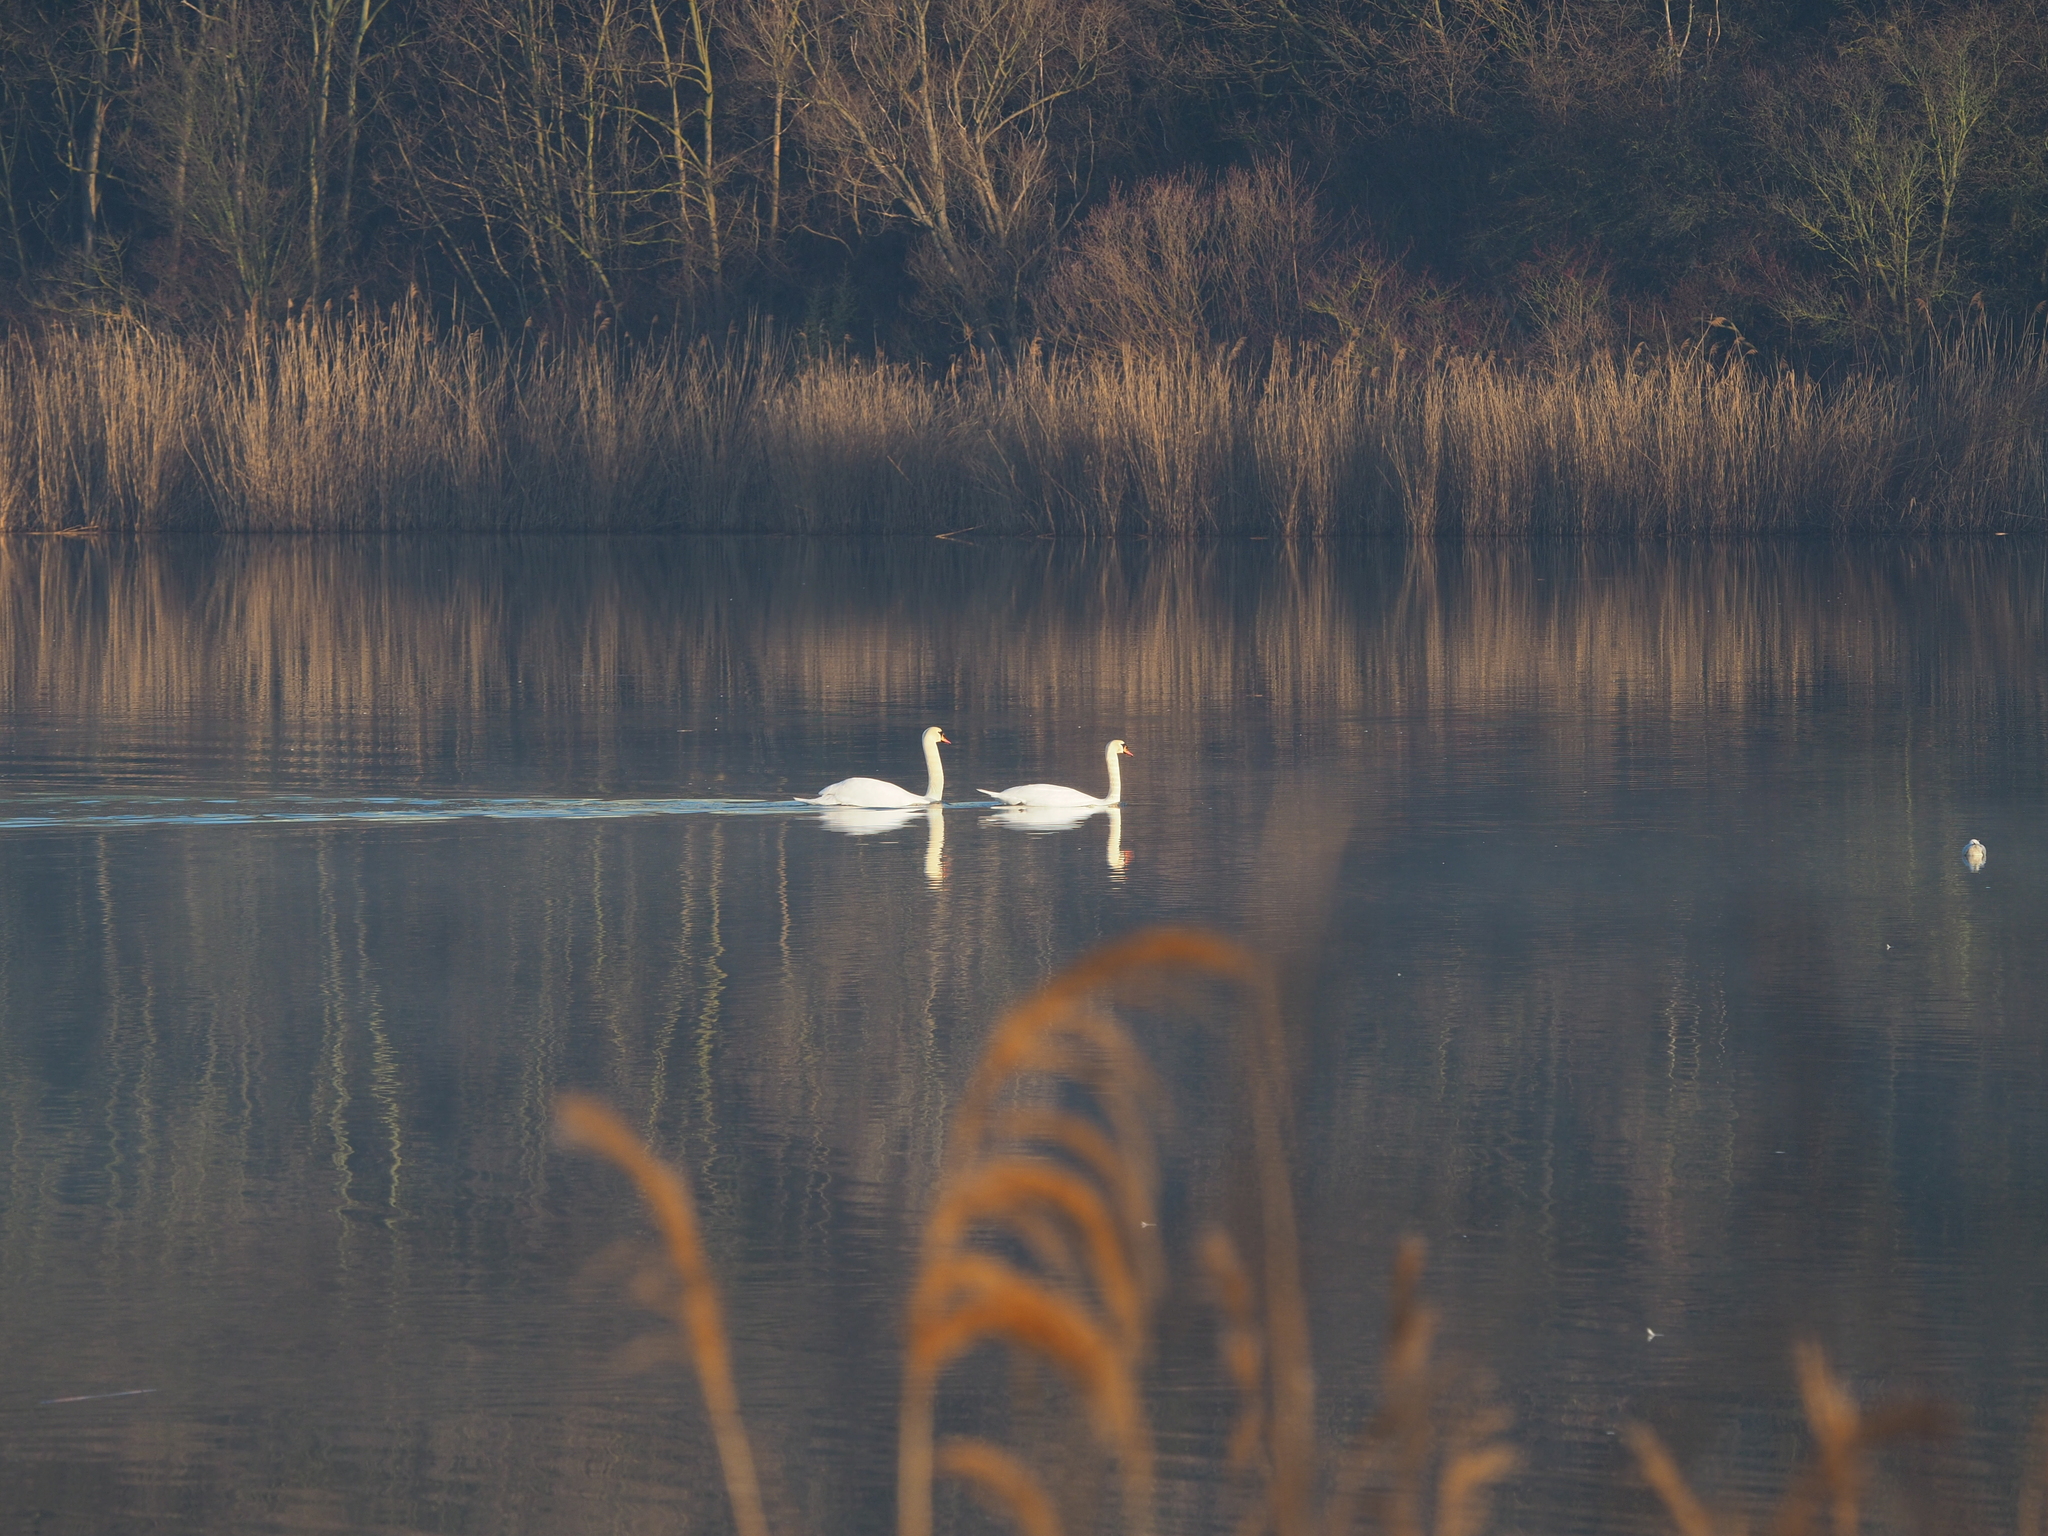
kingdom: Animalia
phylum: Chordata
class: Aves
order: Anseriformes
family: Anatidae
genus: Cygnus
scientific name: Cygnus olor
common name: Mute swan
